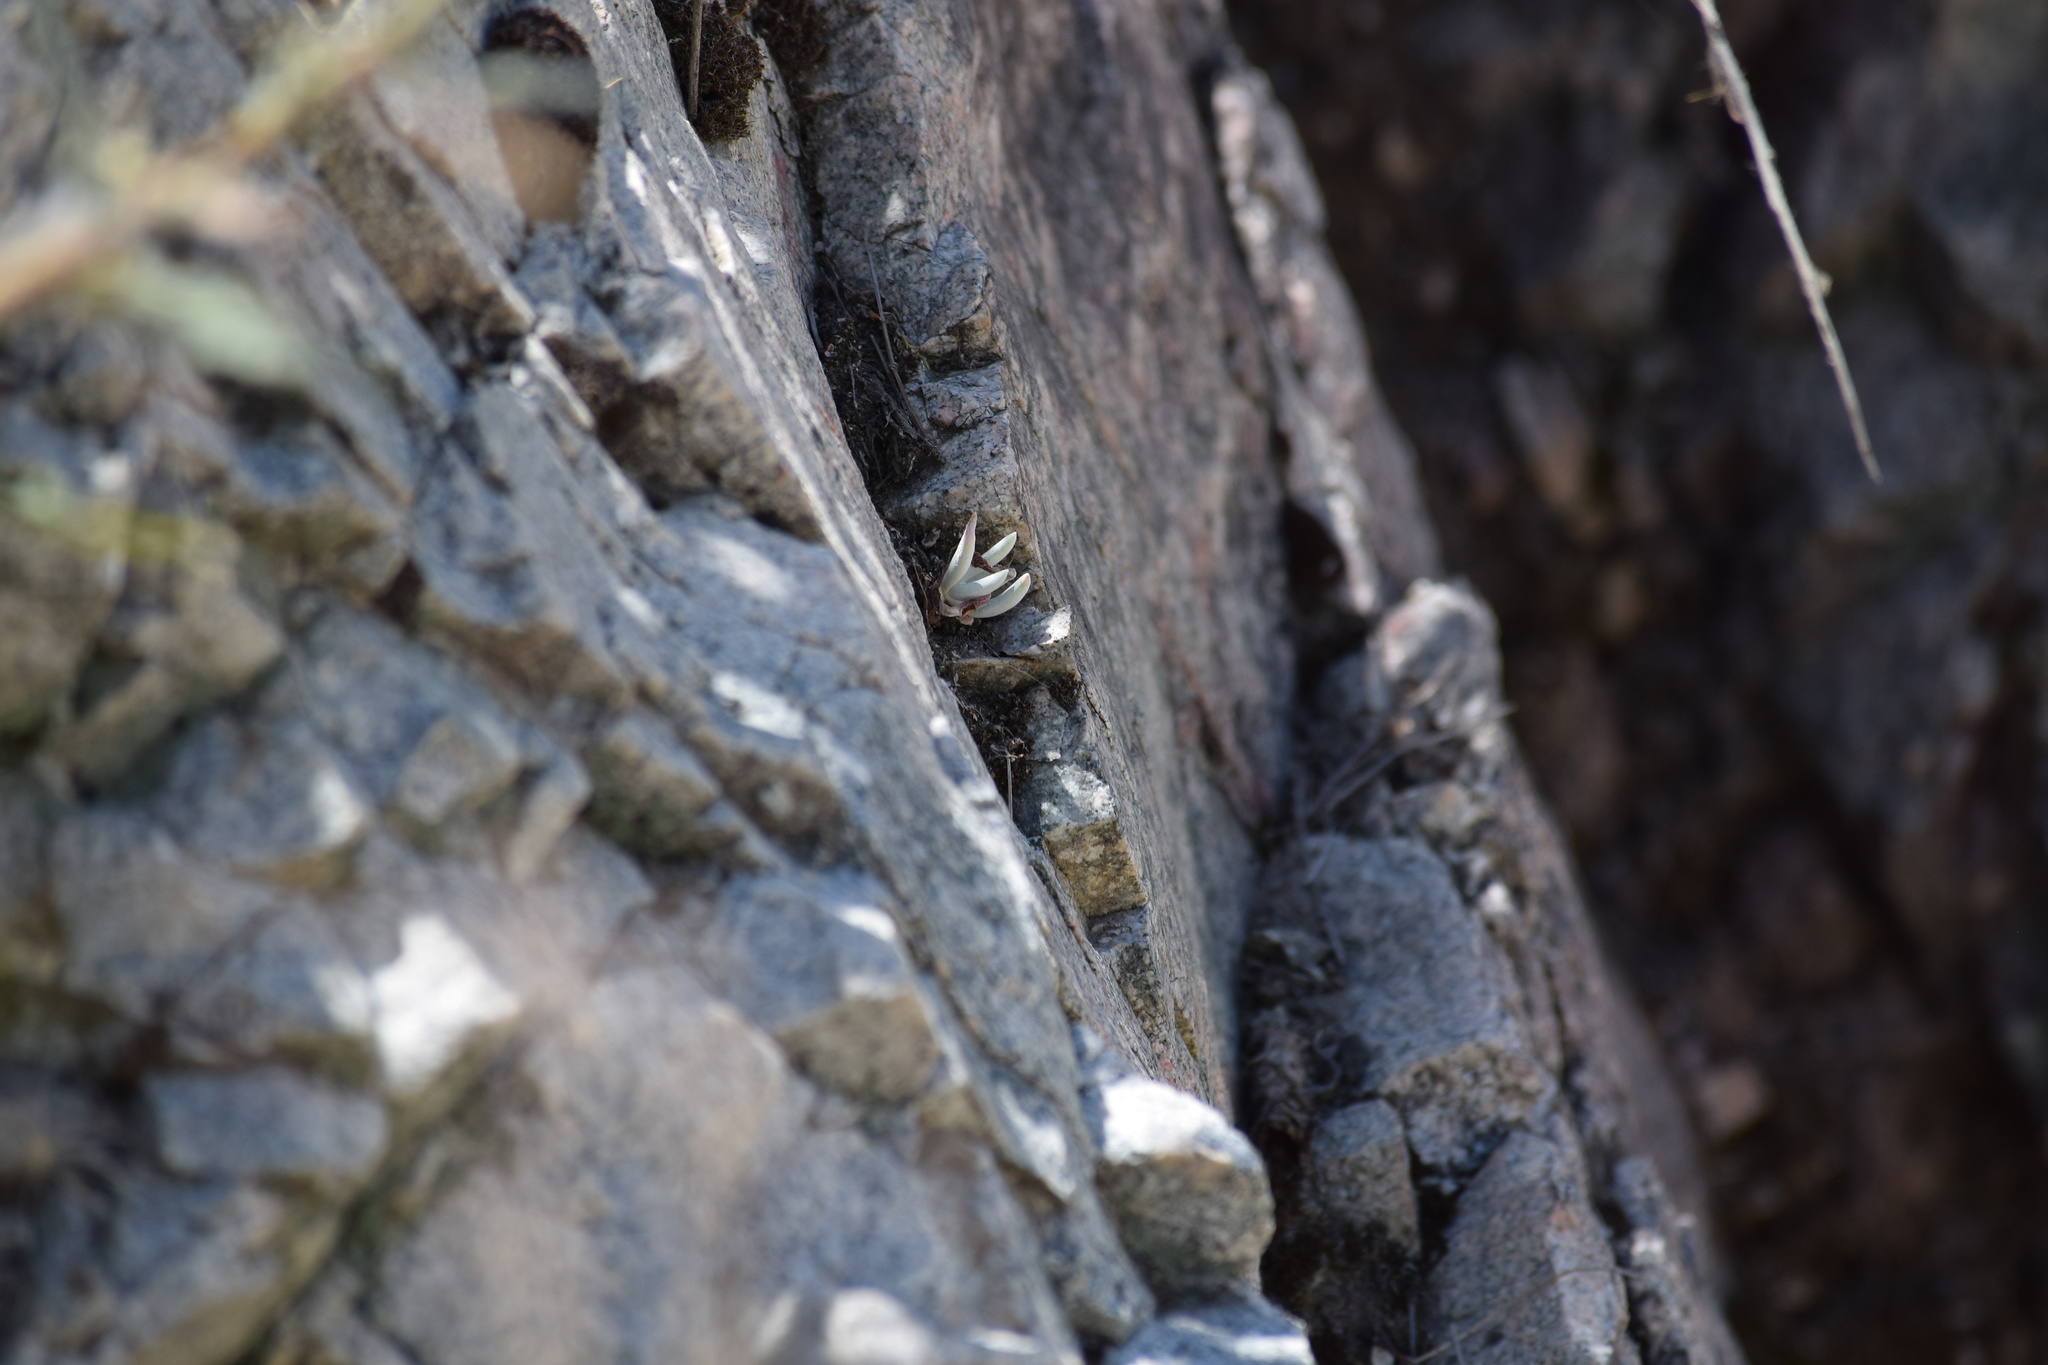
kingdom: Plantae
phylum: Tracheophyta
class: Magnoliopsida
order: Saxifragales
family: Crassulaceae
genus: Dudleya
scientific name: Dudleya densiflora
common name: San gabriel mountains dudleya
